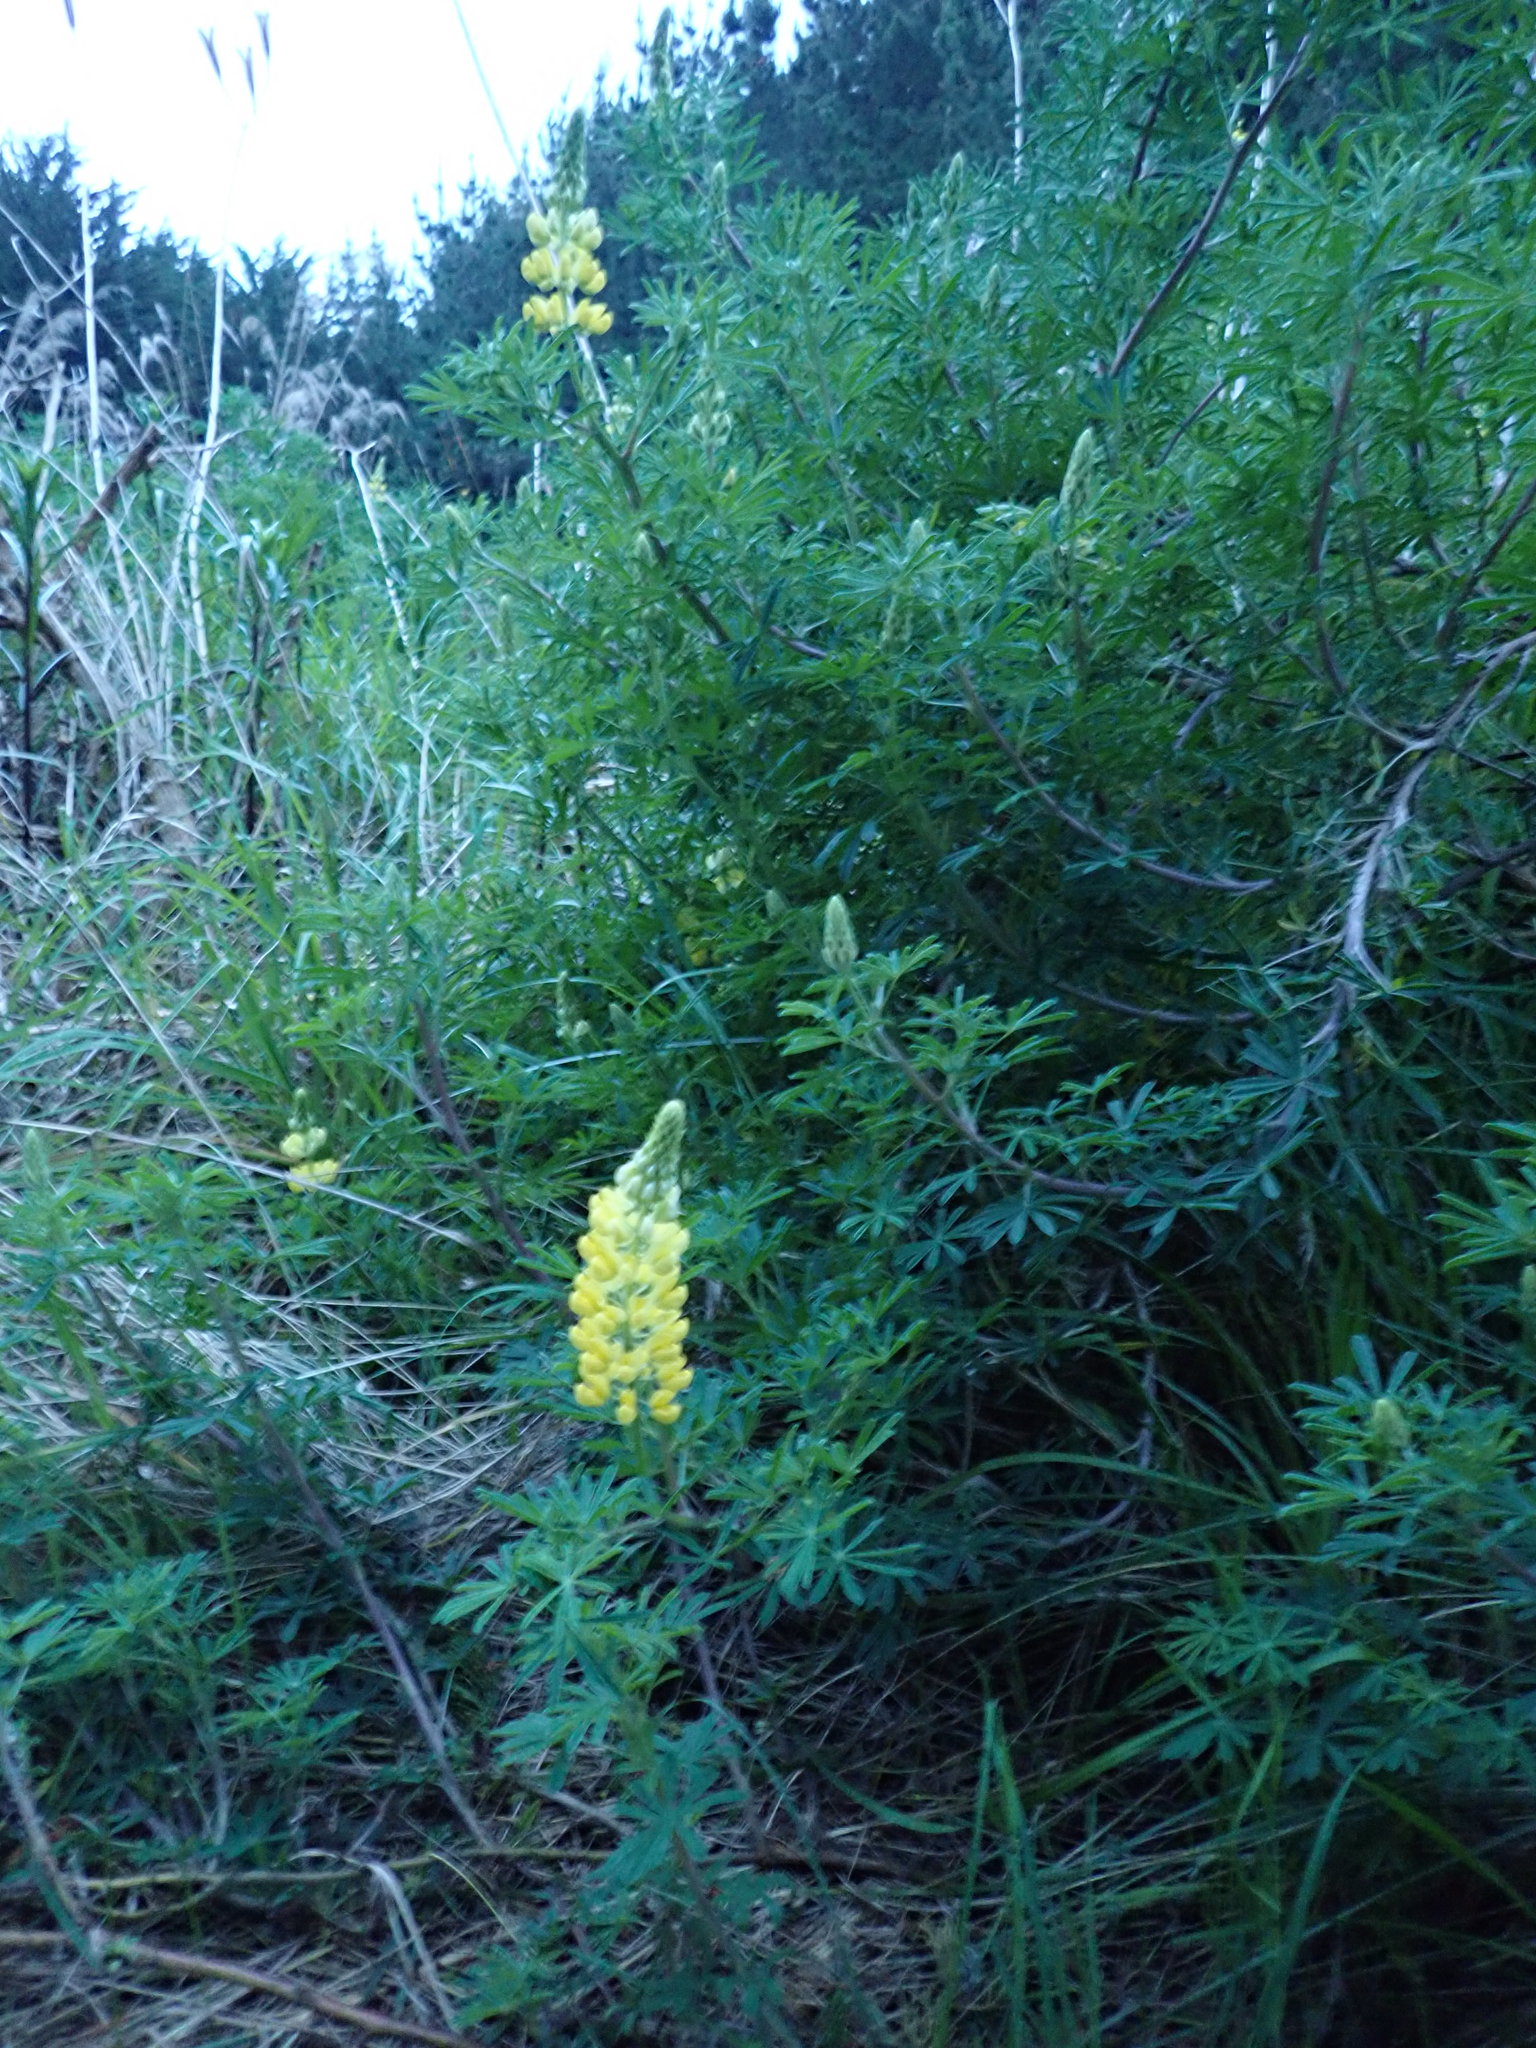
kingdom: Plantae
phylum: Tracheophyta
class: Magnoliopsida
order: Fabales
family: Fabaceae
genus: Lupinus
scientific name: Lupinus arboreus
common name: Yellow bush lupine
